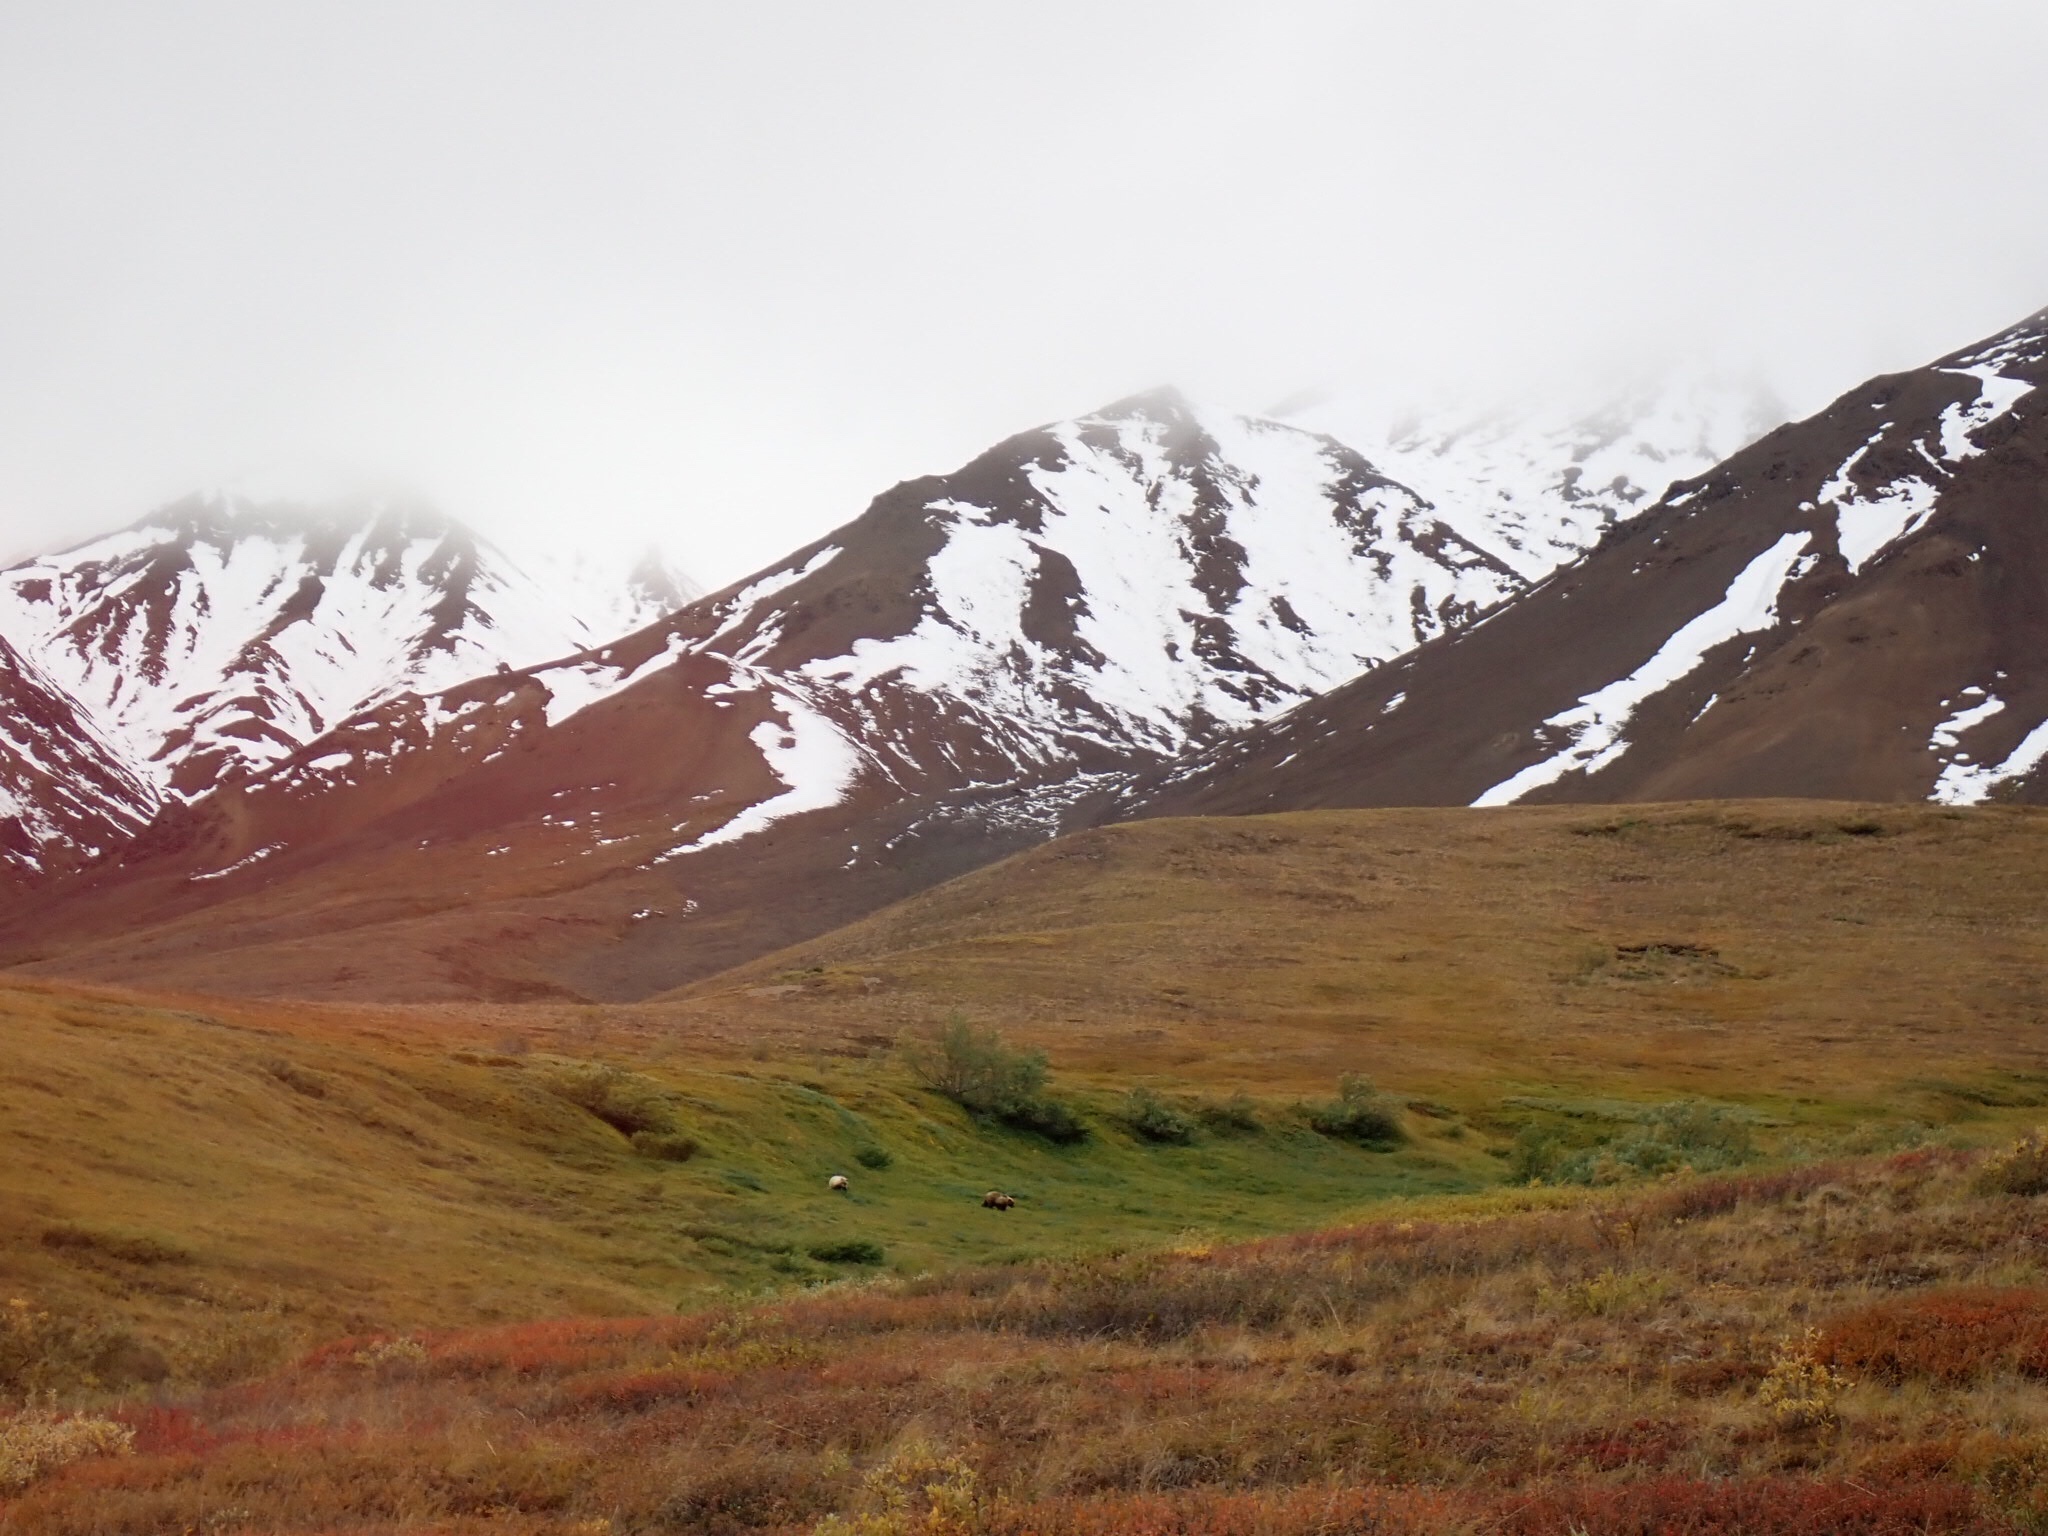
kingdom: Animalia
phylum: Chordata
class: Mammalia
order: Carnivora
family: Ursidae
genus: Ursus
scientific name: Ursus arctos
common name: Brown bear
